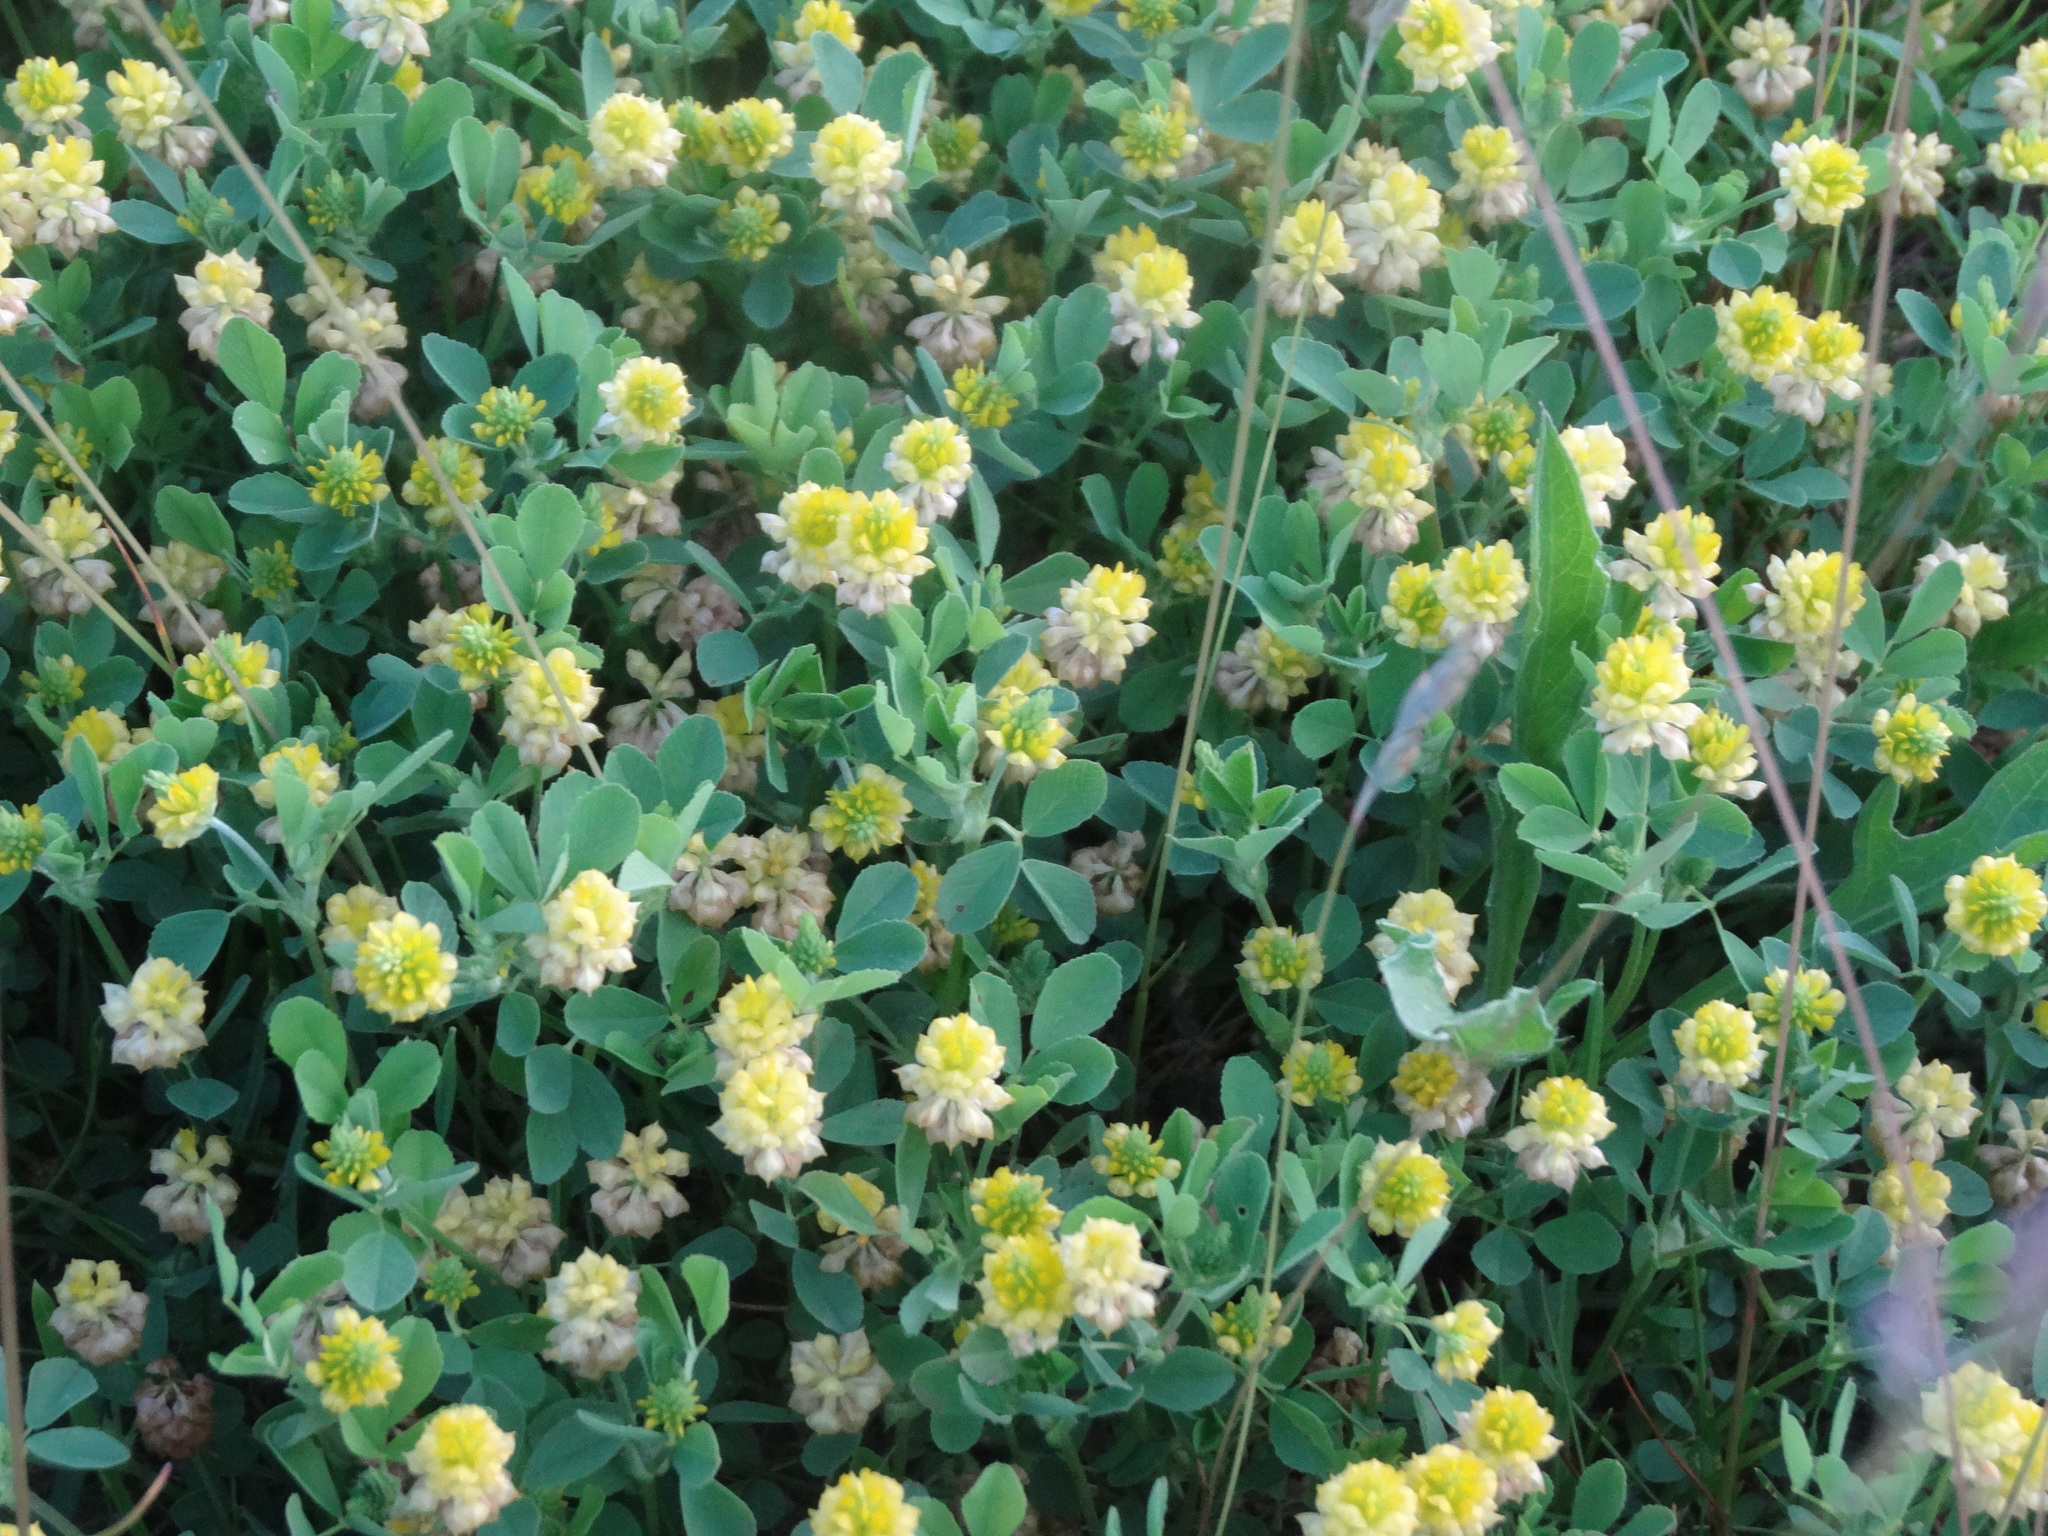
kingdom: Plantae
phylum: Tracheophyta
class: Magnoliopsida
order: Fabales
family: Fabaceae
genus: Trifolium
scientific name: Trifolium campestre
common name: Field clover
